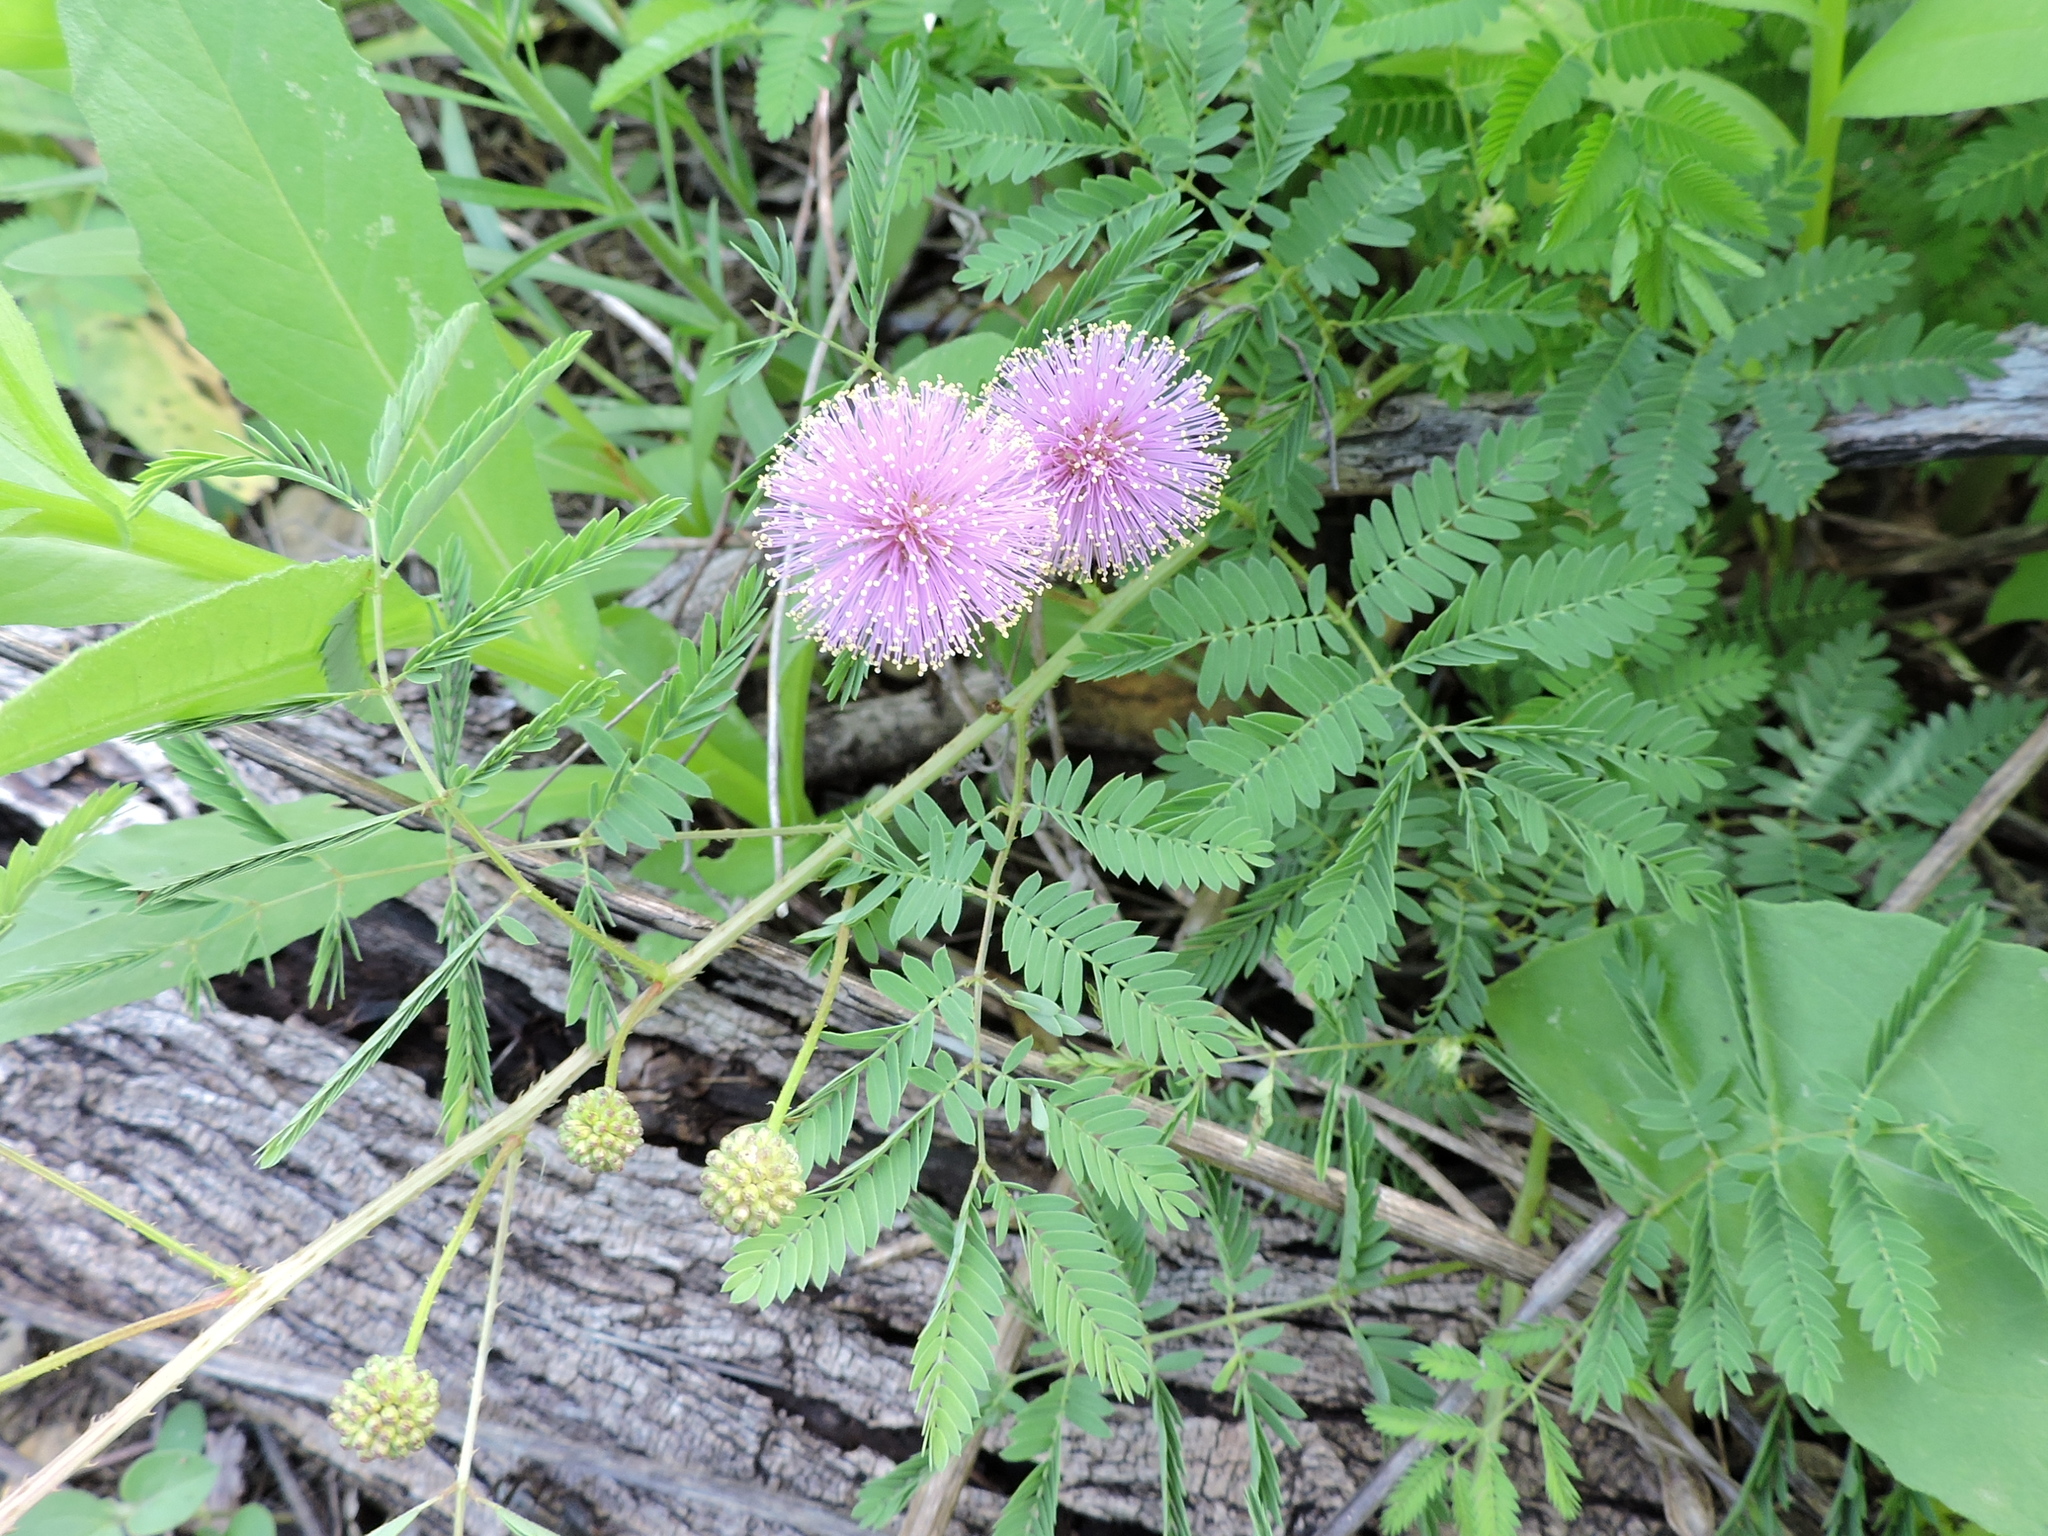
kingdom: Plantae
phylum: Tracheophyta
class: Magnoliopsida
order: Fabales
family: Fabaceae
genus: Mimosa
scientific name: Mimosa quadrivalvis
